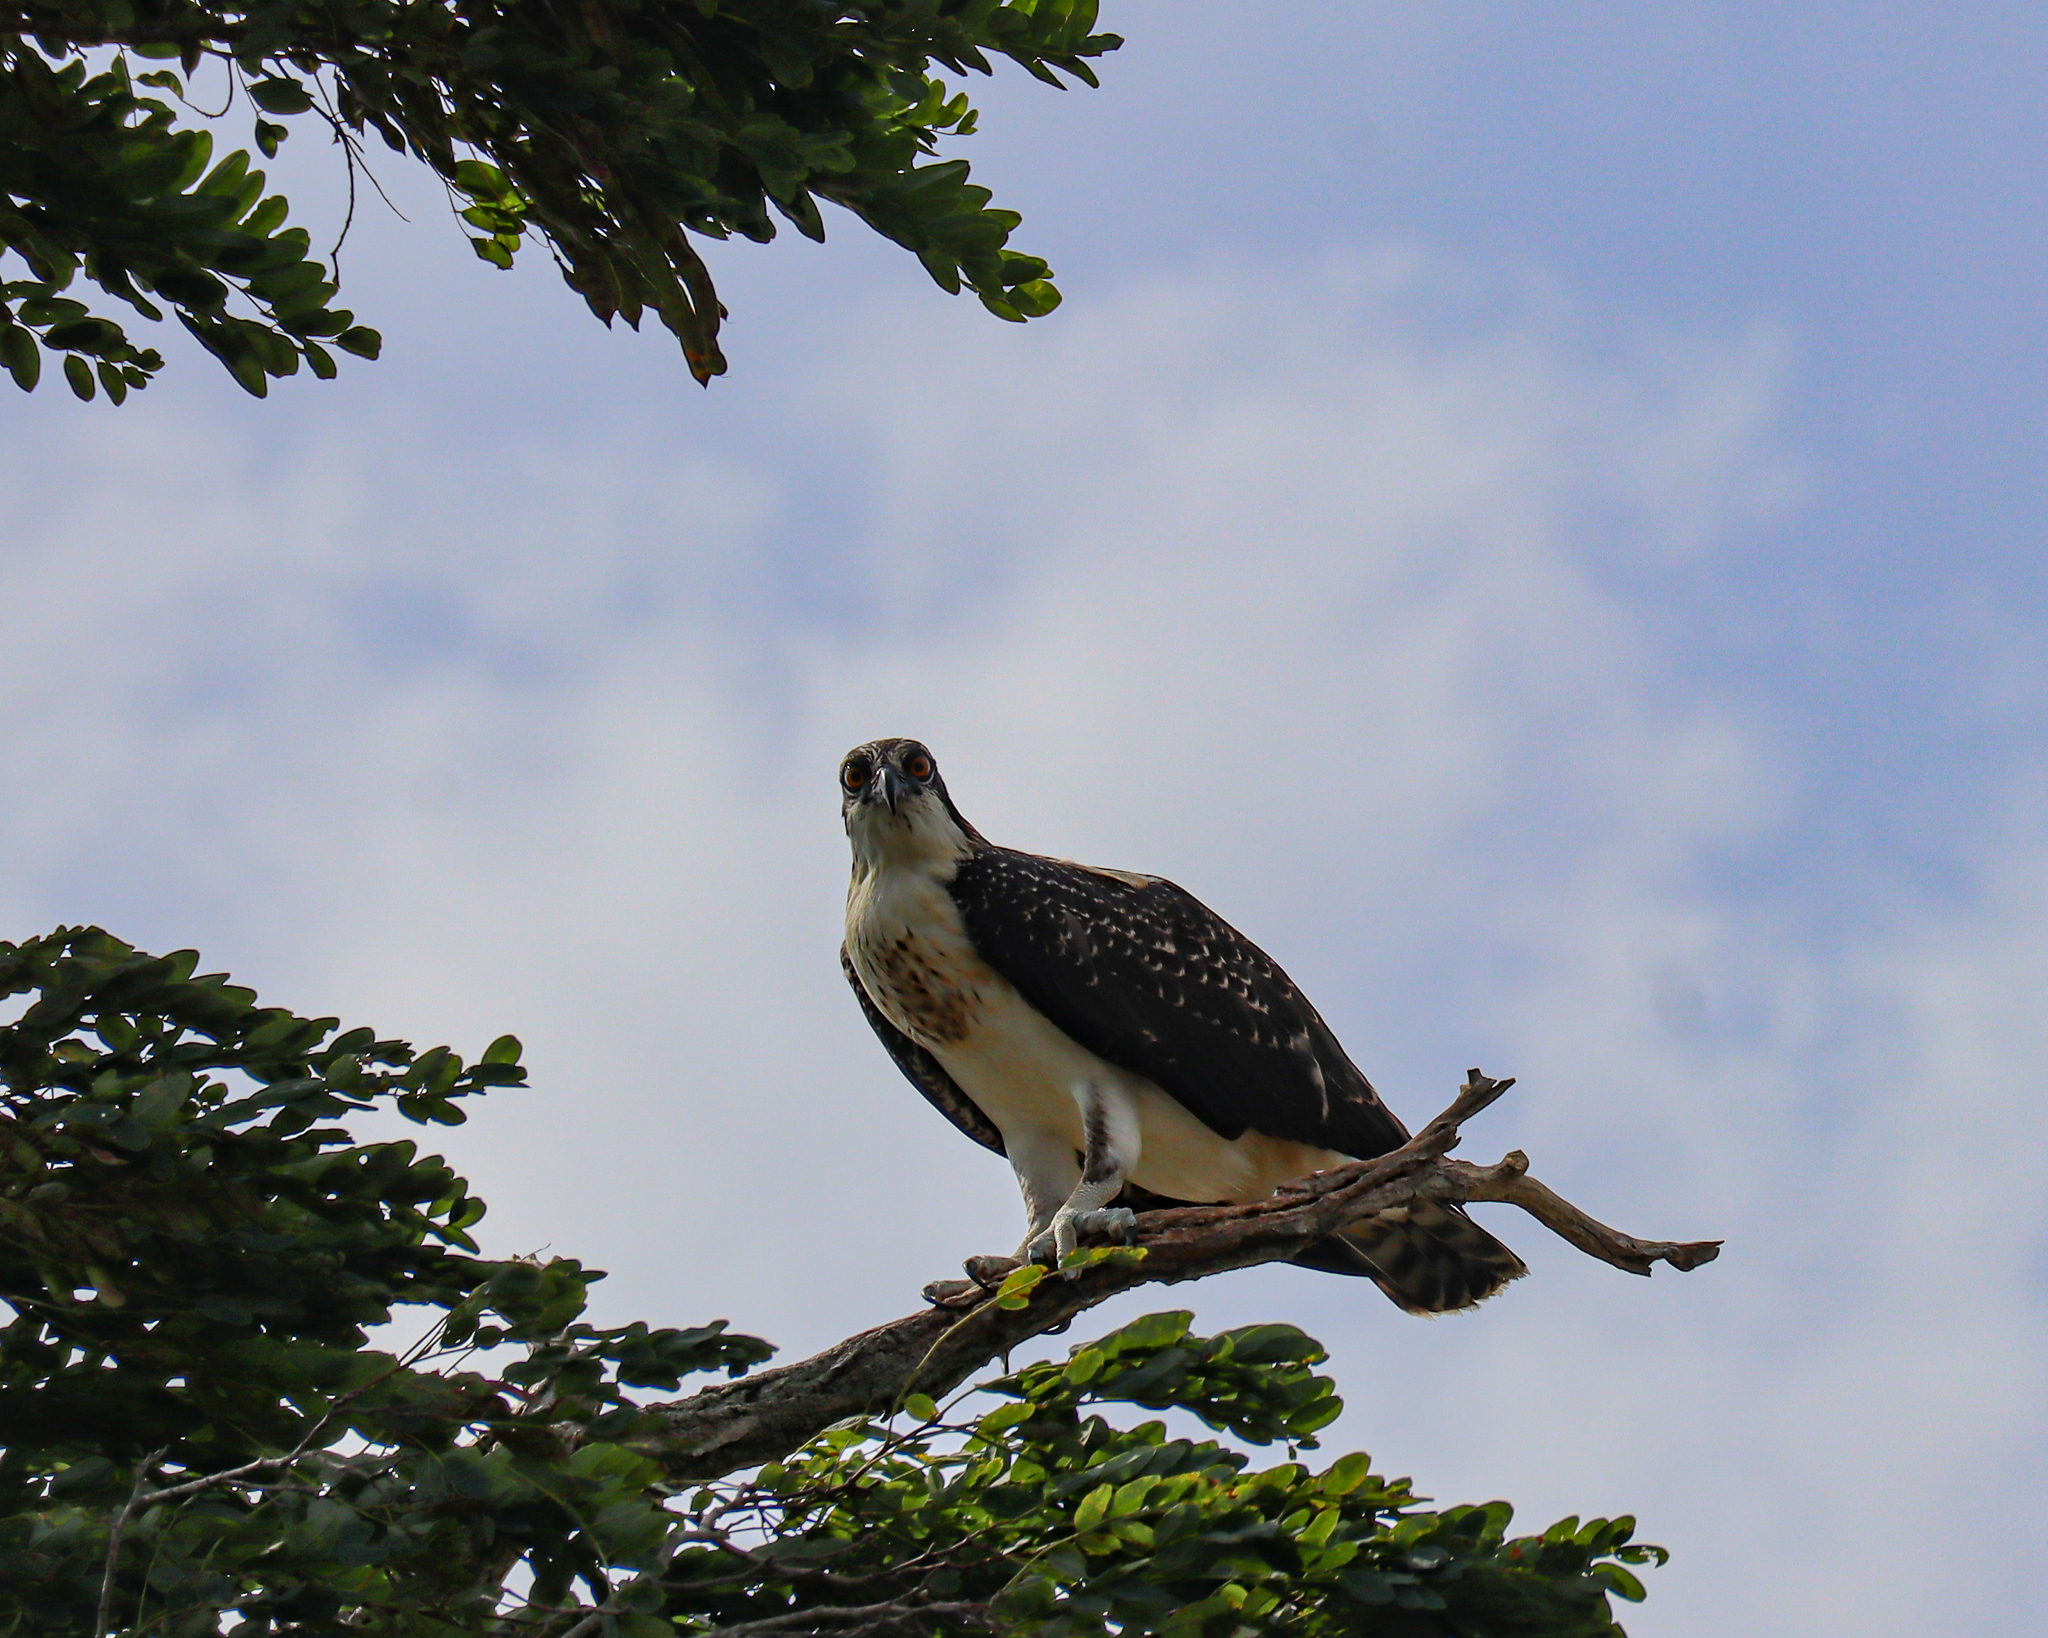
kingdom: Animalia
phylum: Chordata
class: Aves
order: Accipitriformes
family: Pandionidae
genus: Pandion
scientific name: Pandion haliaetus
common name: Osprey
